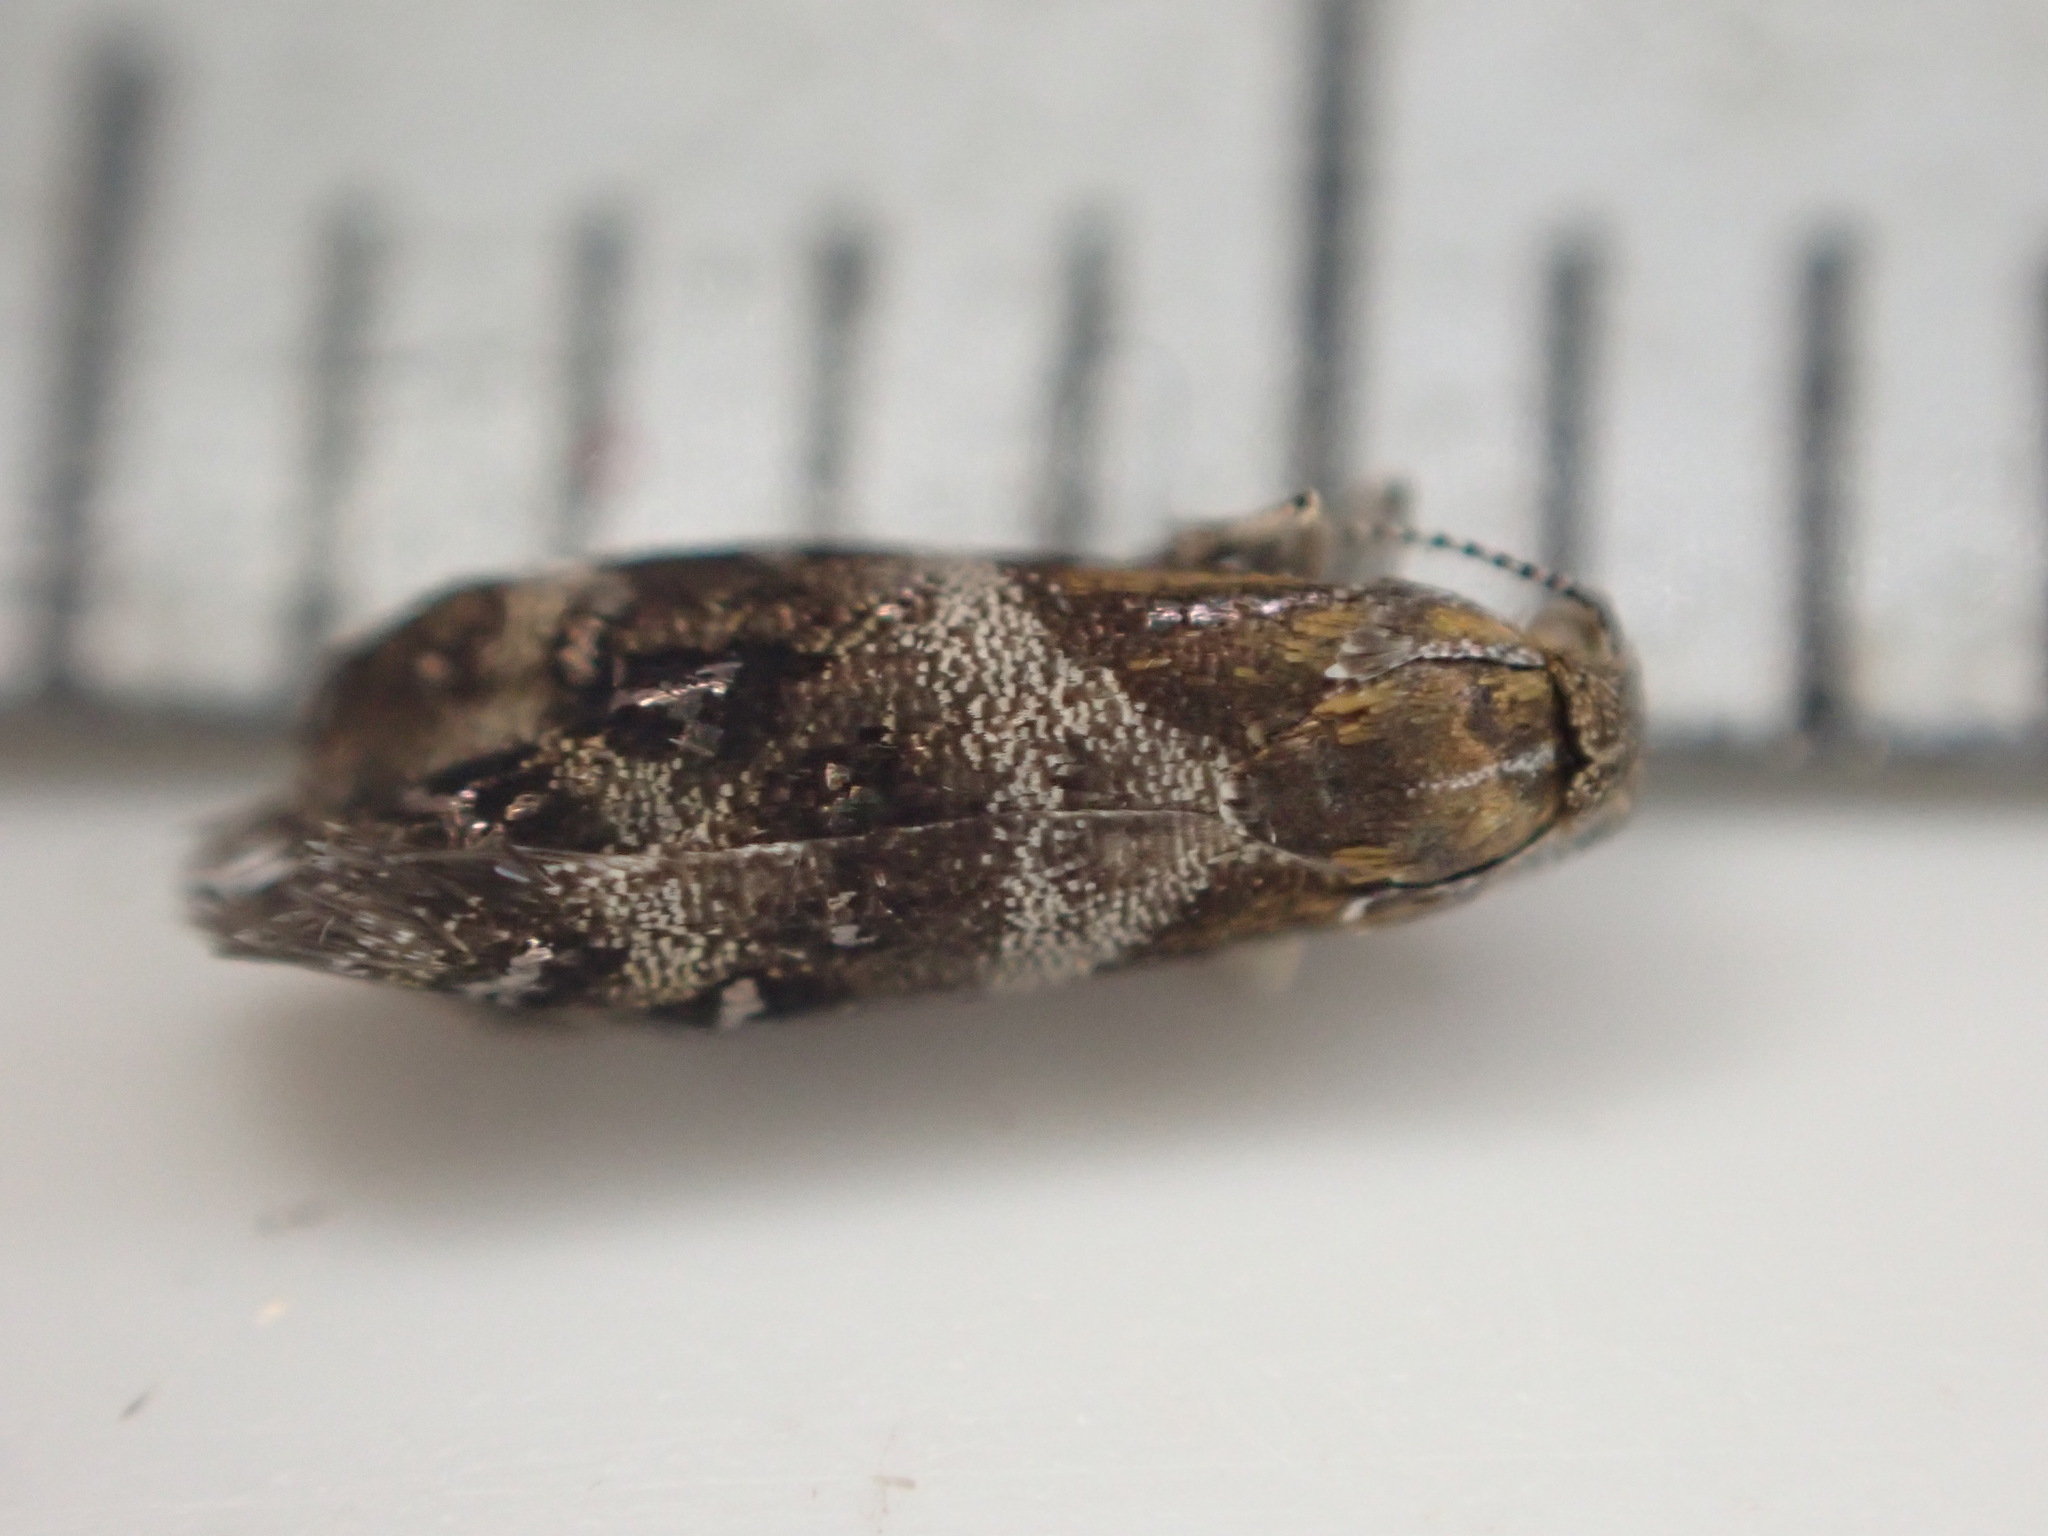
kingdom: Animalia
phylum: Arthropoda
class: Insecta
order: Lepidoptera
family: Choreutidae
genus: Tebenna
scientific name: Tebenna micalis
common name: Vagrant twitcher
